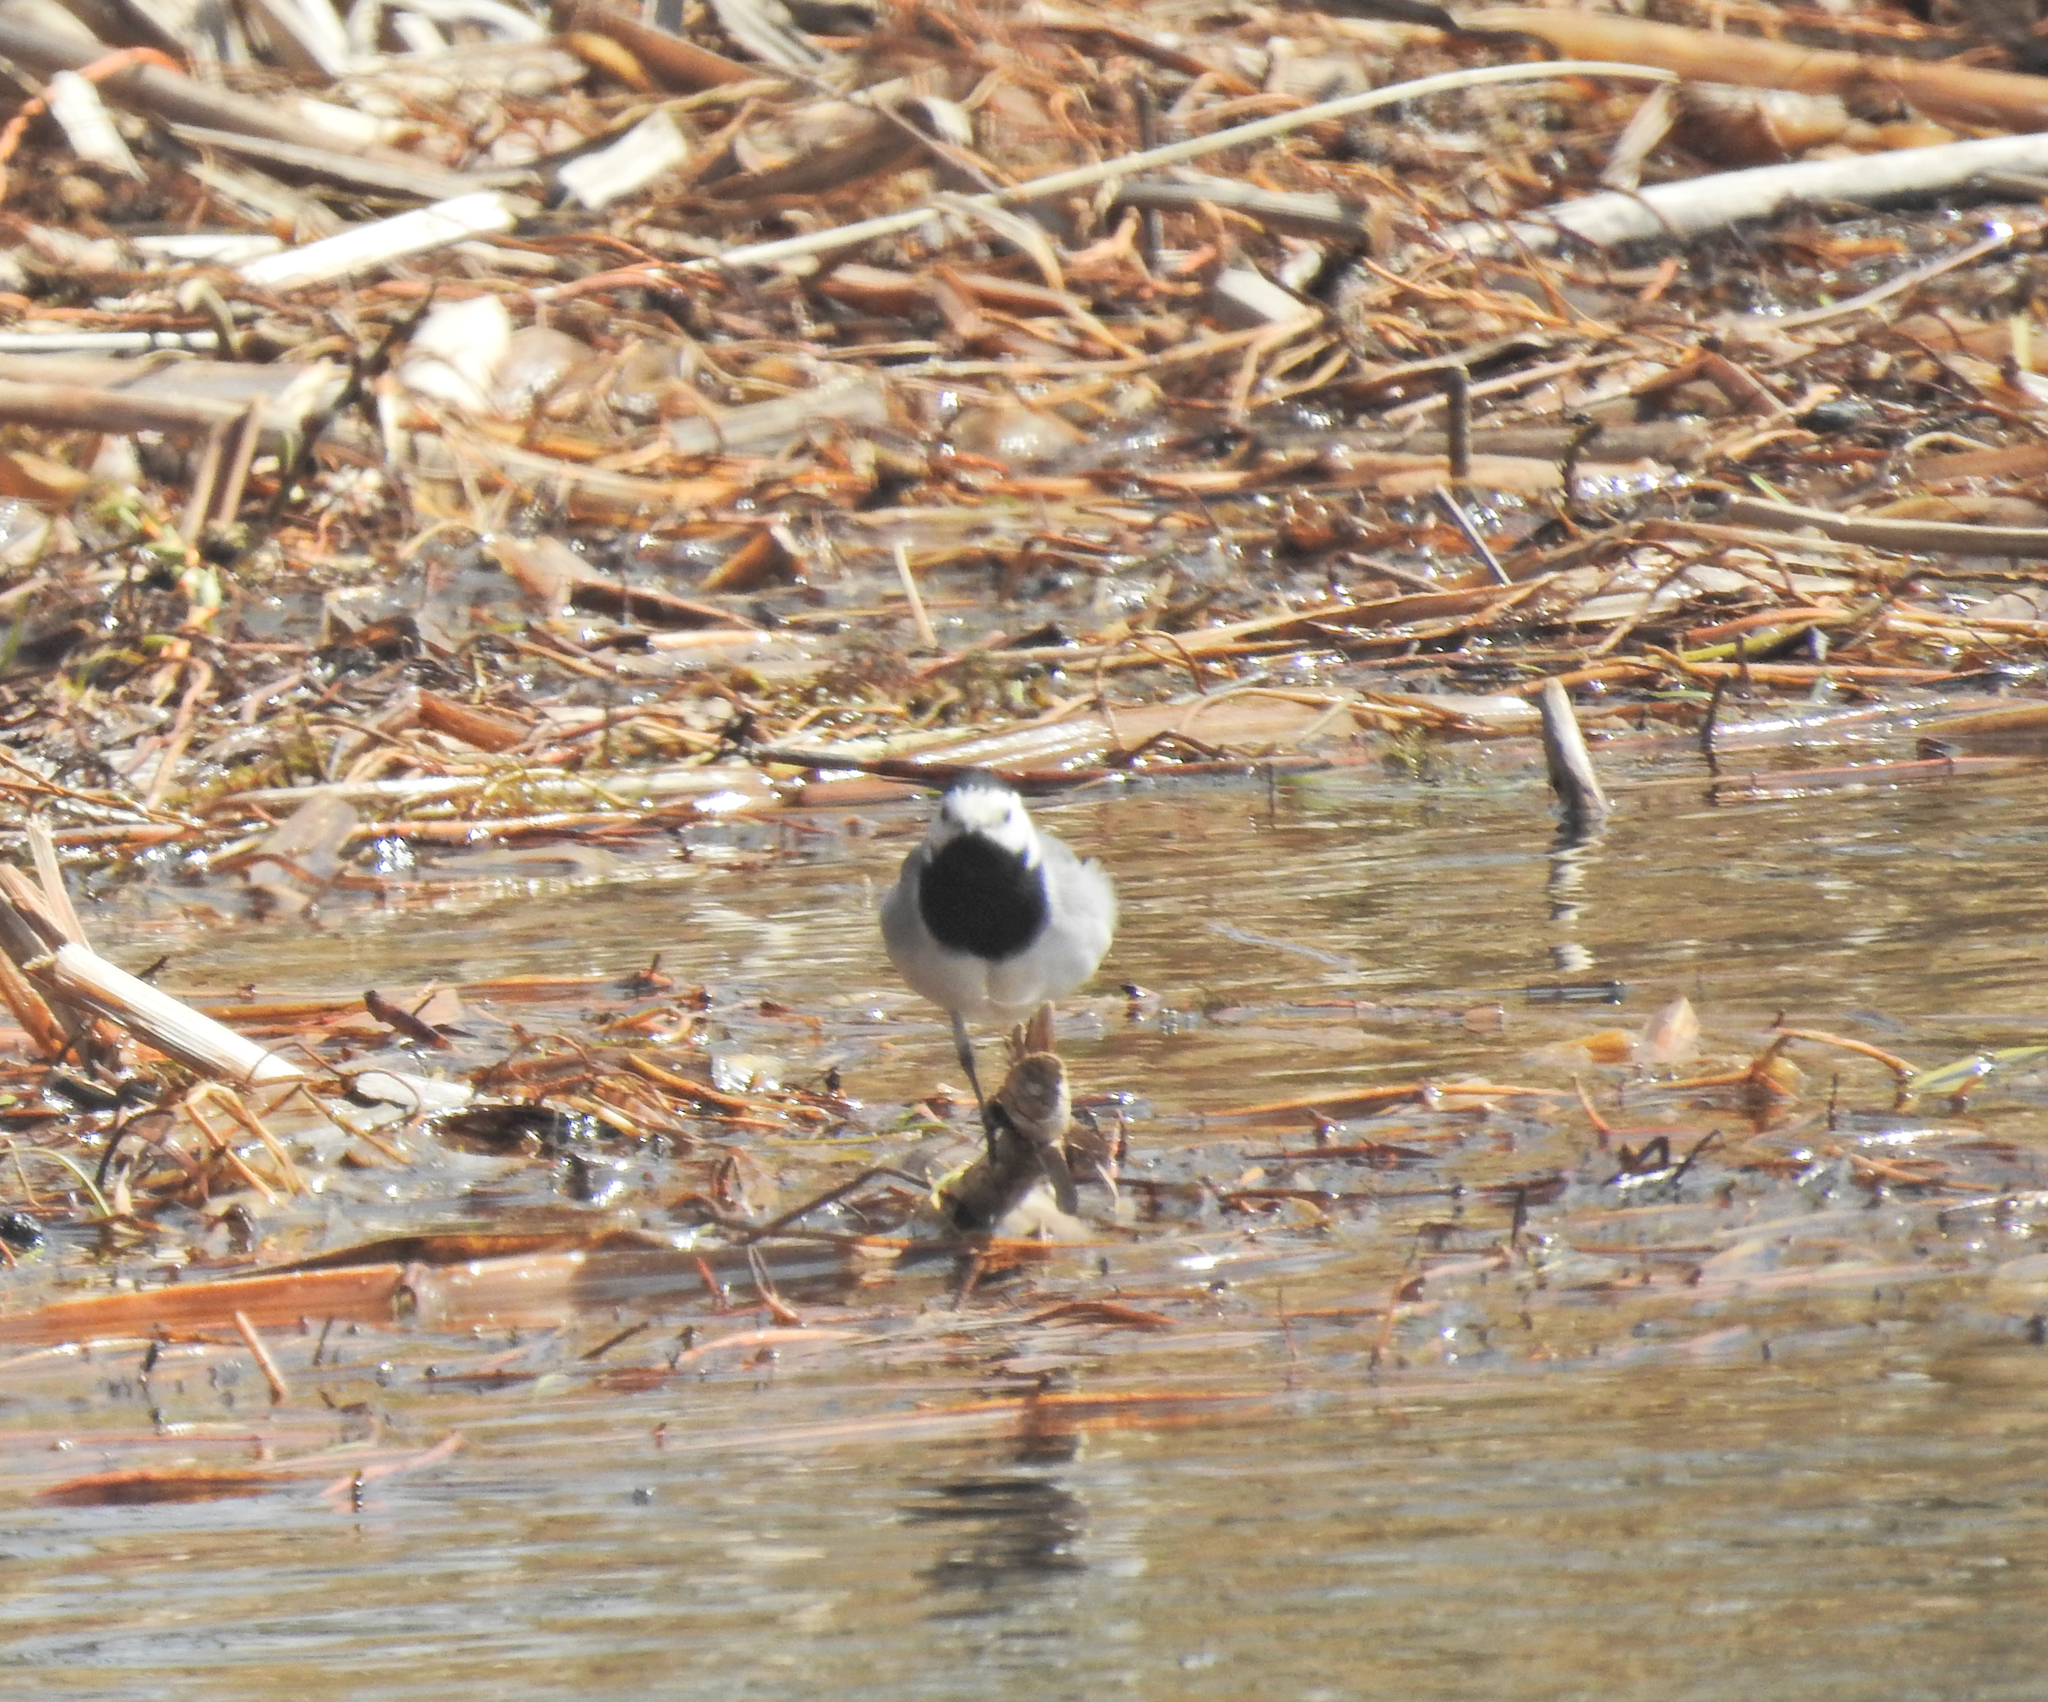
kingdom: Animalia
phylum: Chordata
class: Aves
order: Passeriformes
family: Motacillidae
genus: Motacilla
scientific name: Motacilla alba
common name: White wagtail
